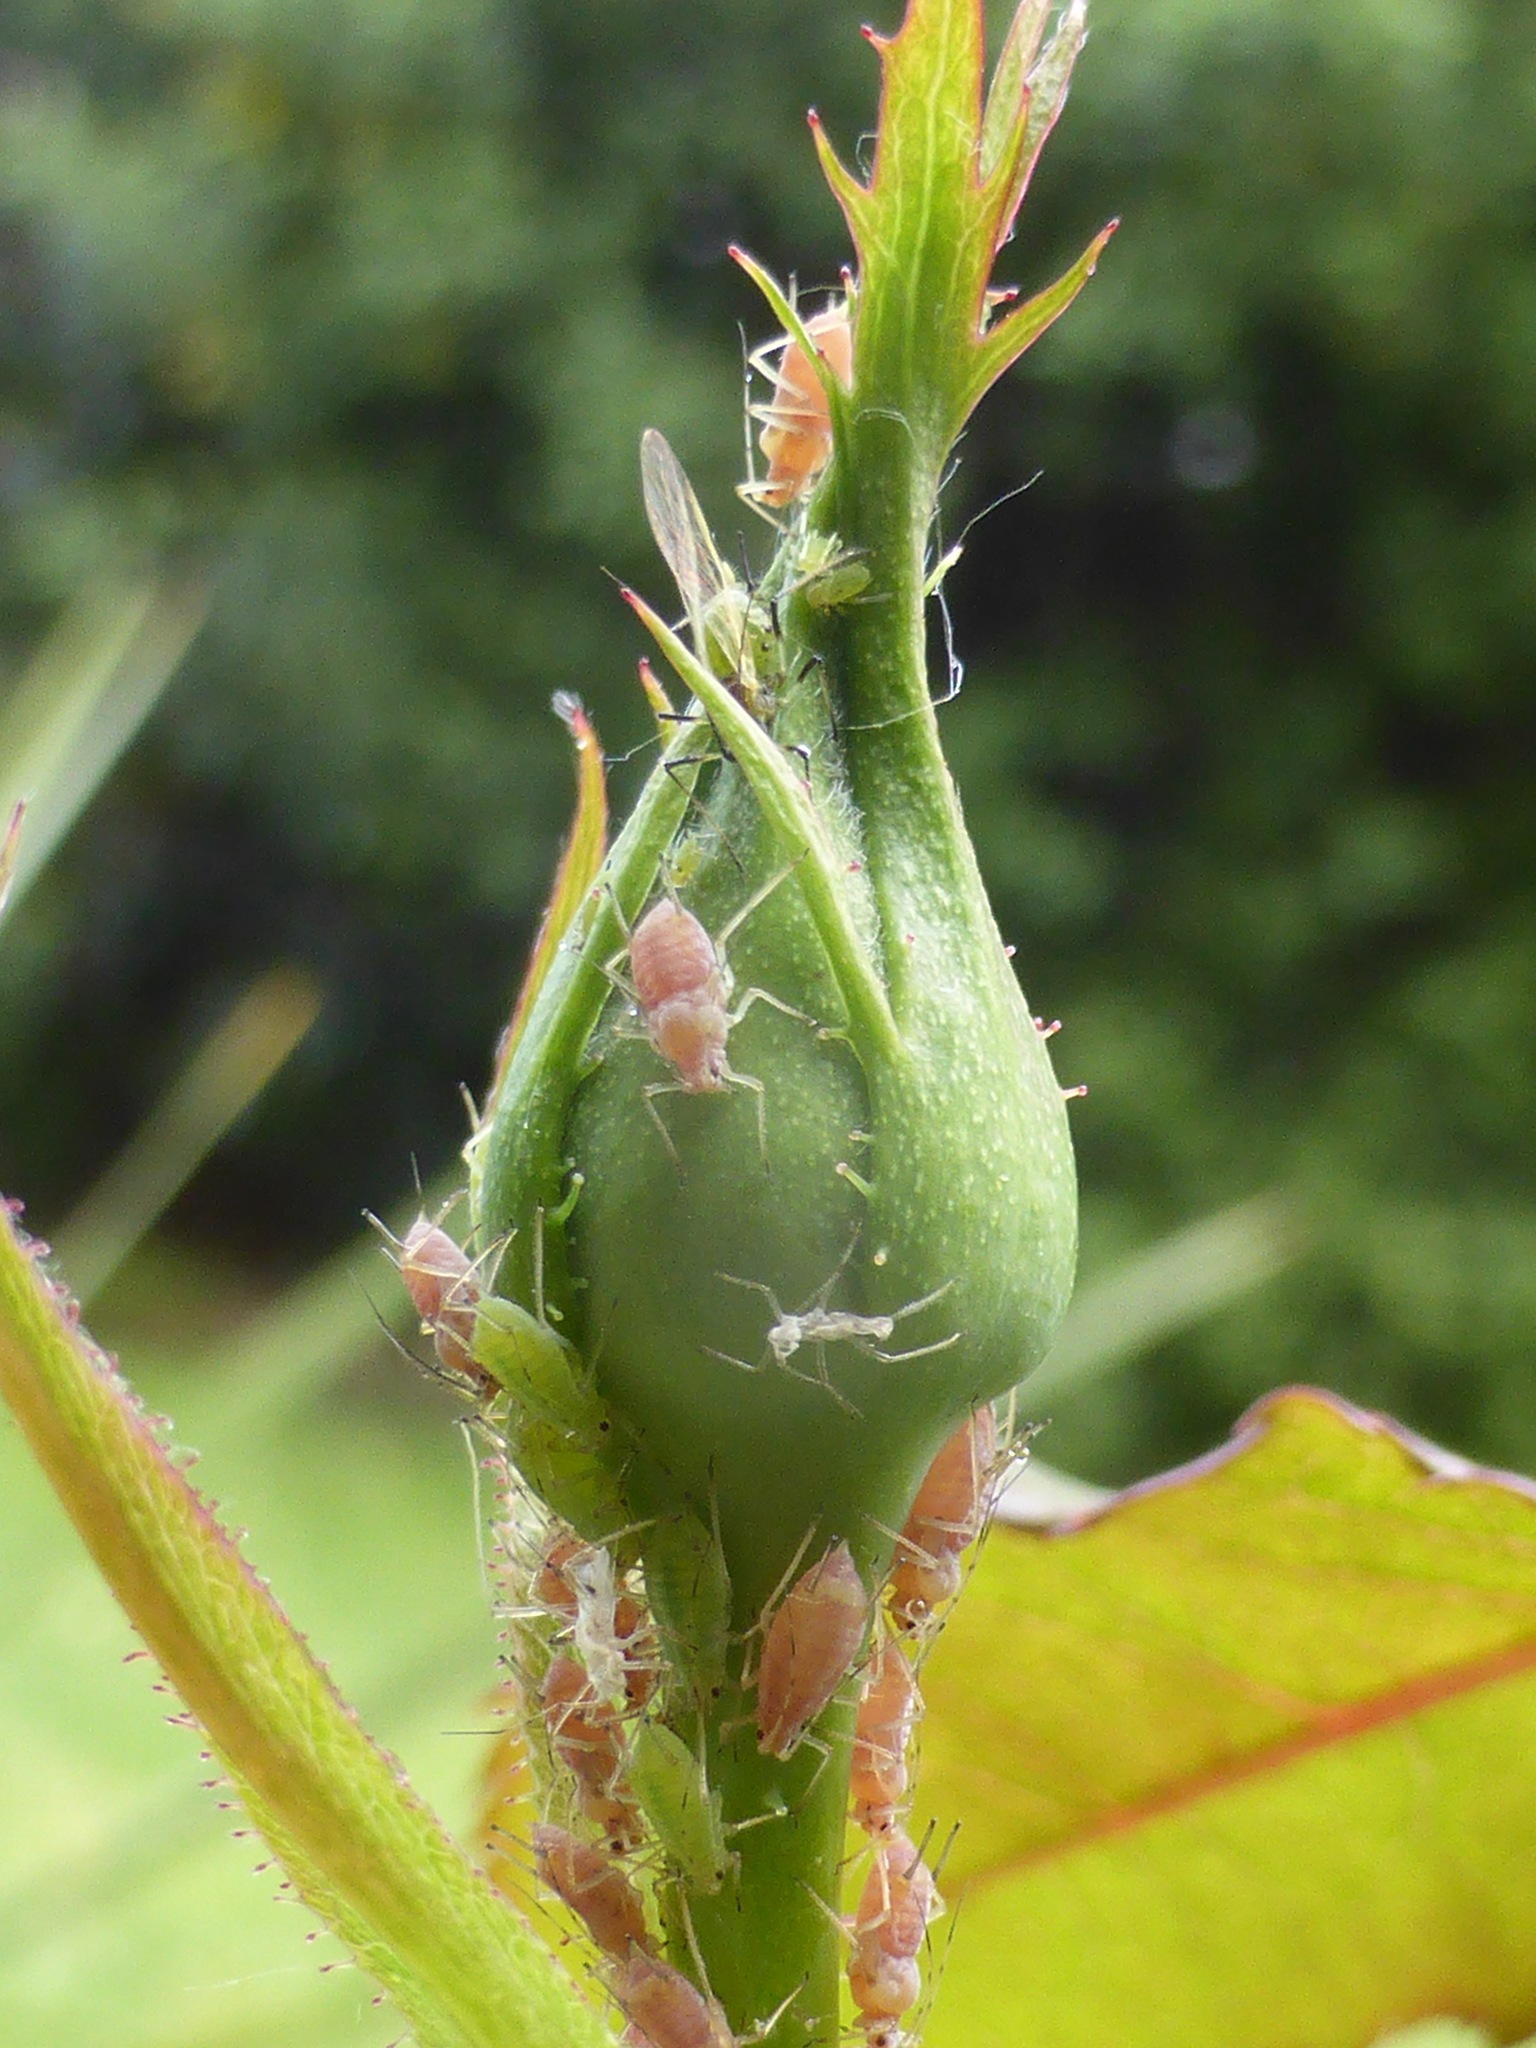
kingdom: Animalia
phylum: Arthropoda
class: Insecta
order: Hemiptera
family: Aphididae
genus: Macrosiphum
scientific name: Macrosiphum rosae
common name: Rose aphid
